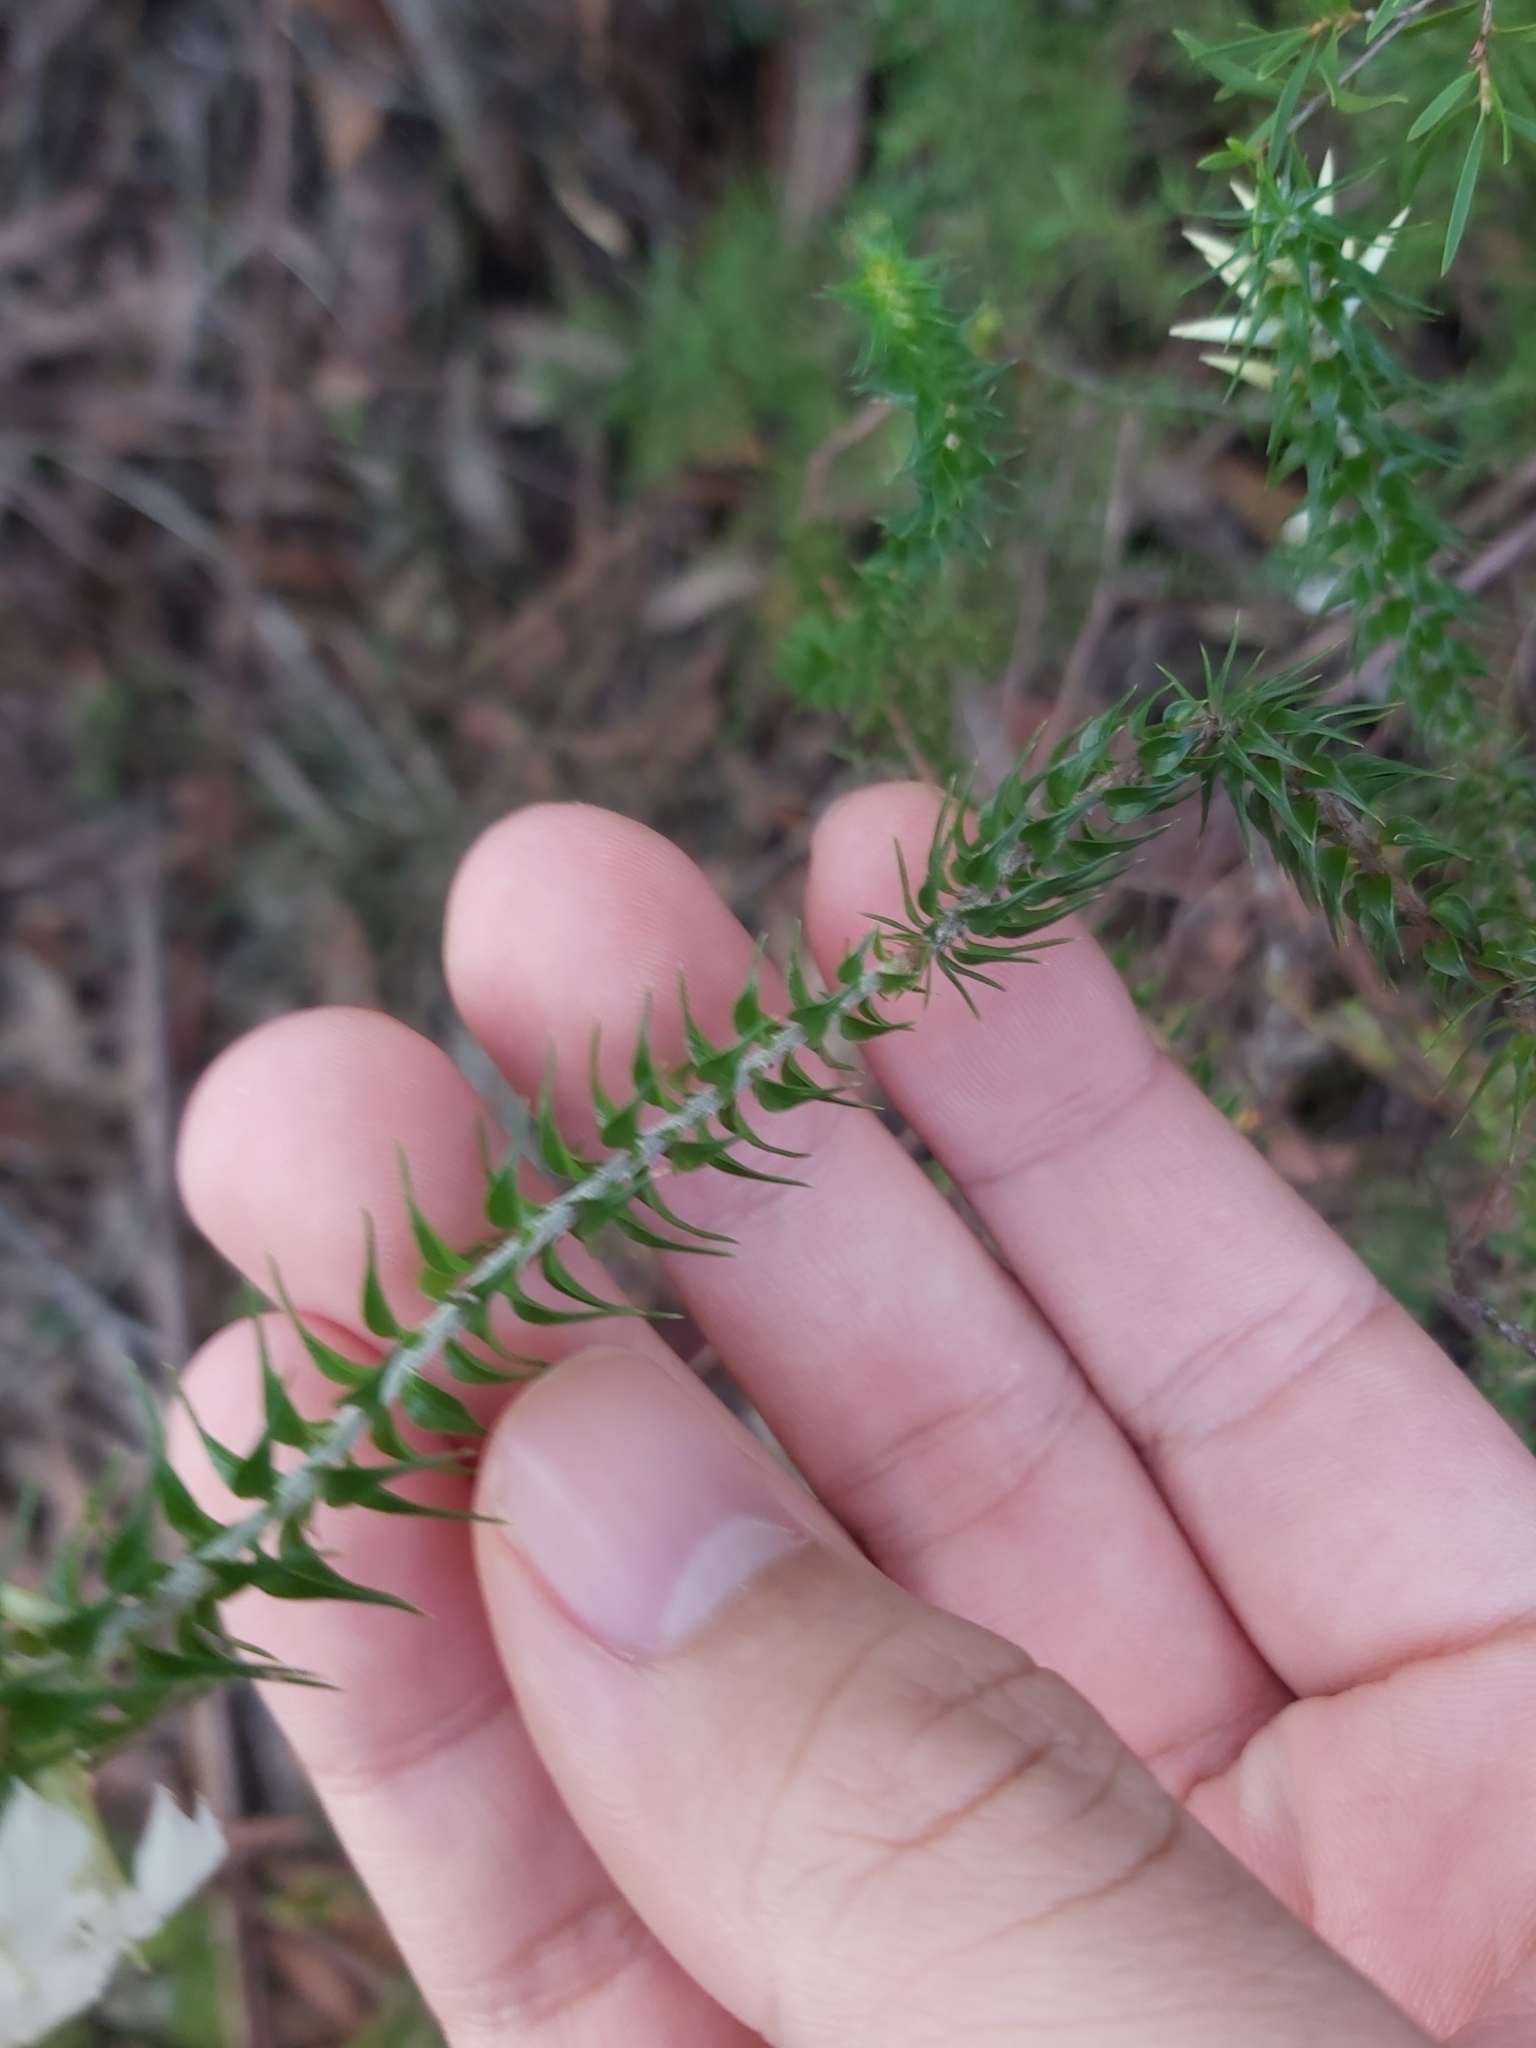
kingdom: Plantae
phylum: Tracheophyta
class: Magnoliopsida
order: Ericales
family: Ericaceae
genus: Woollsia
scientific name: Woollsia pungens
